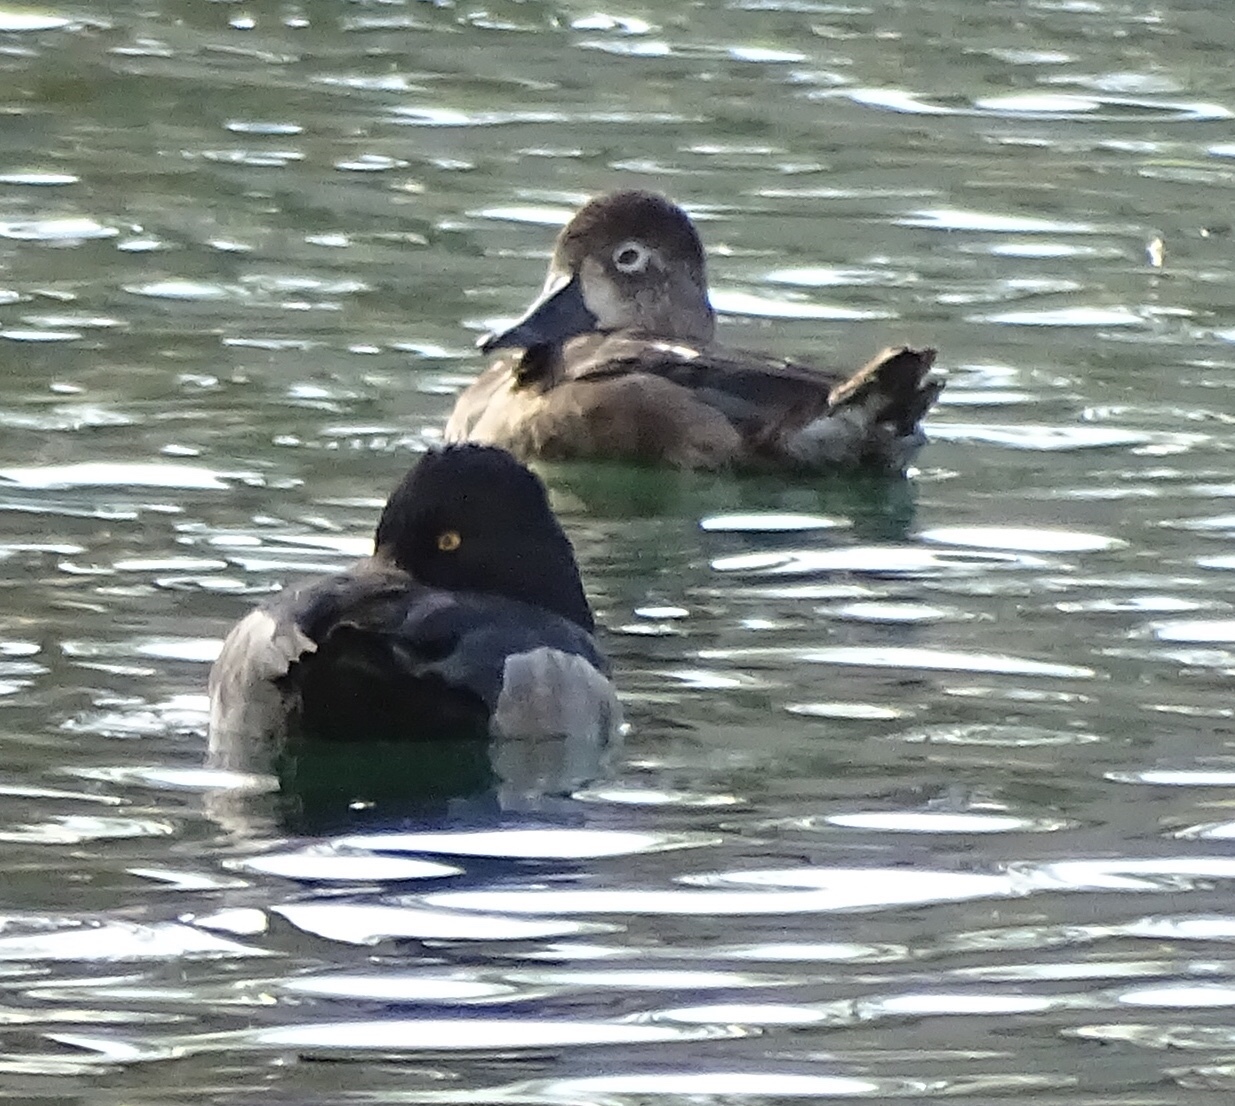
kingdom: Animalia
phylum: Chordata
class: Aves
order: Anseriformes
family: Anatidae
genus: Aythya
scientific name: Aythya collaris
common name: Ring-necked duck
